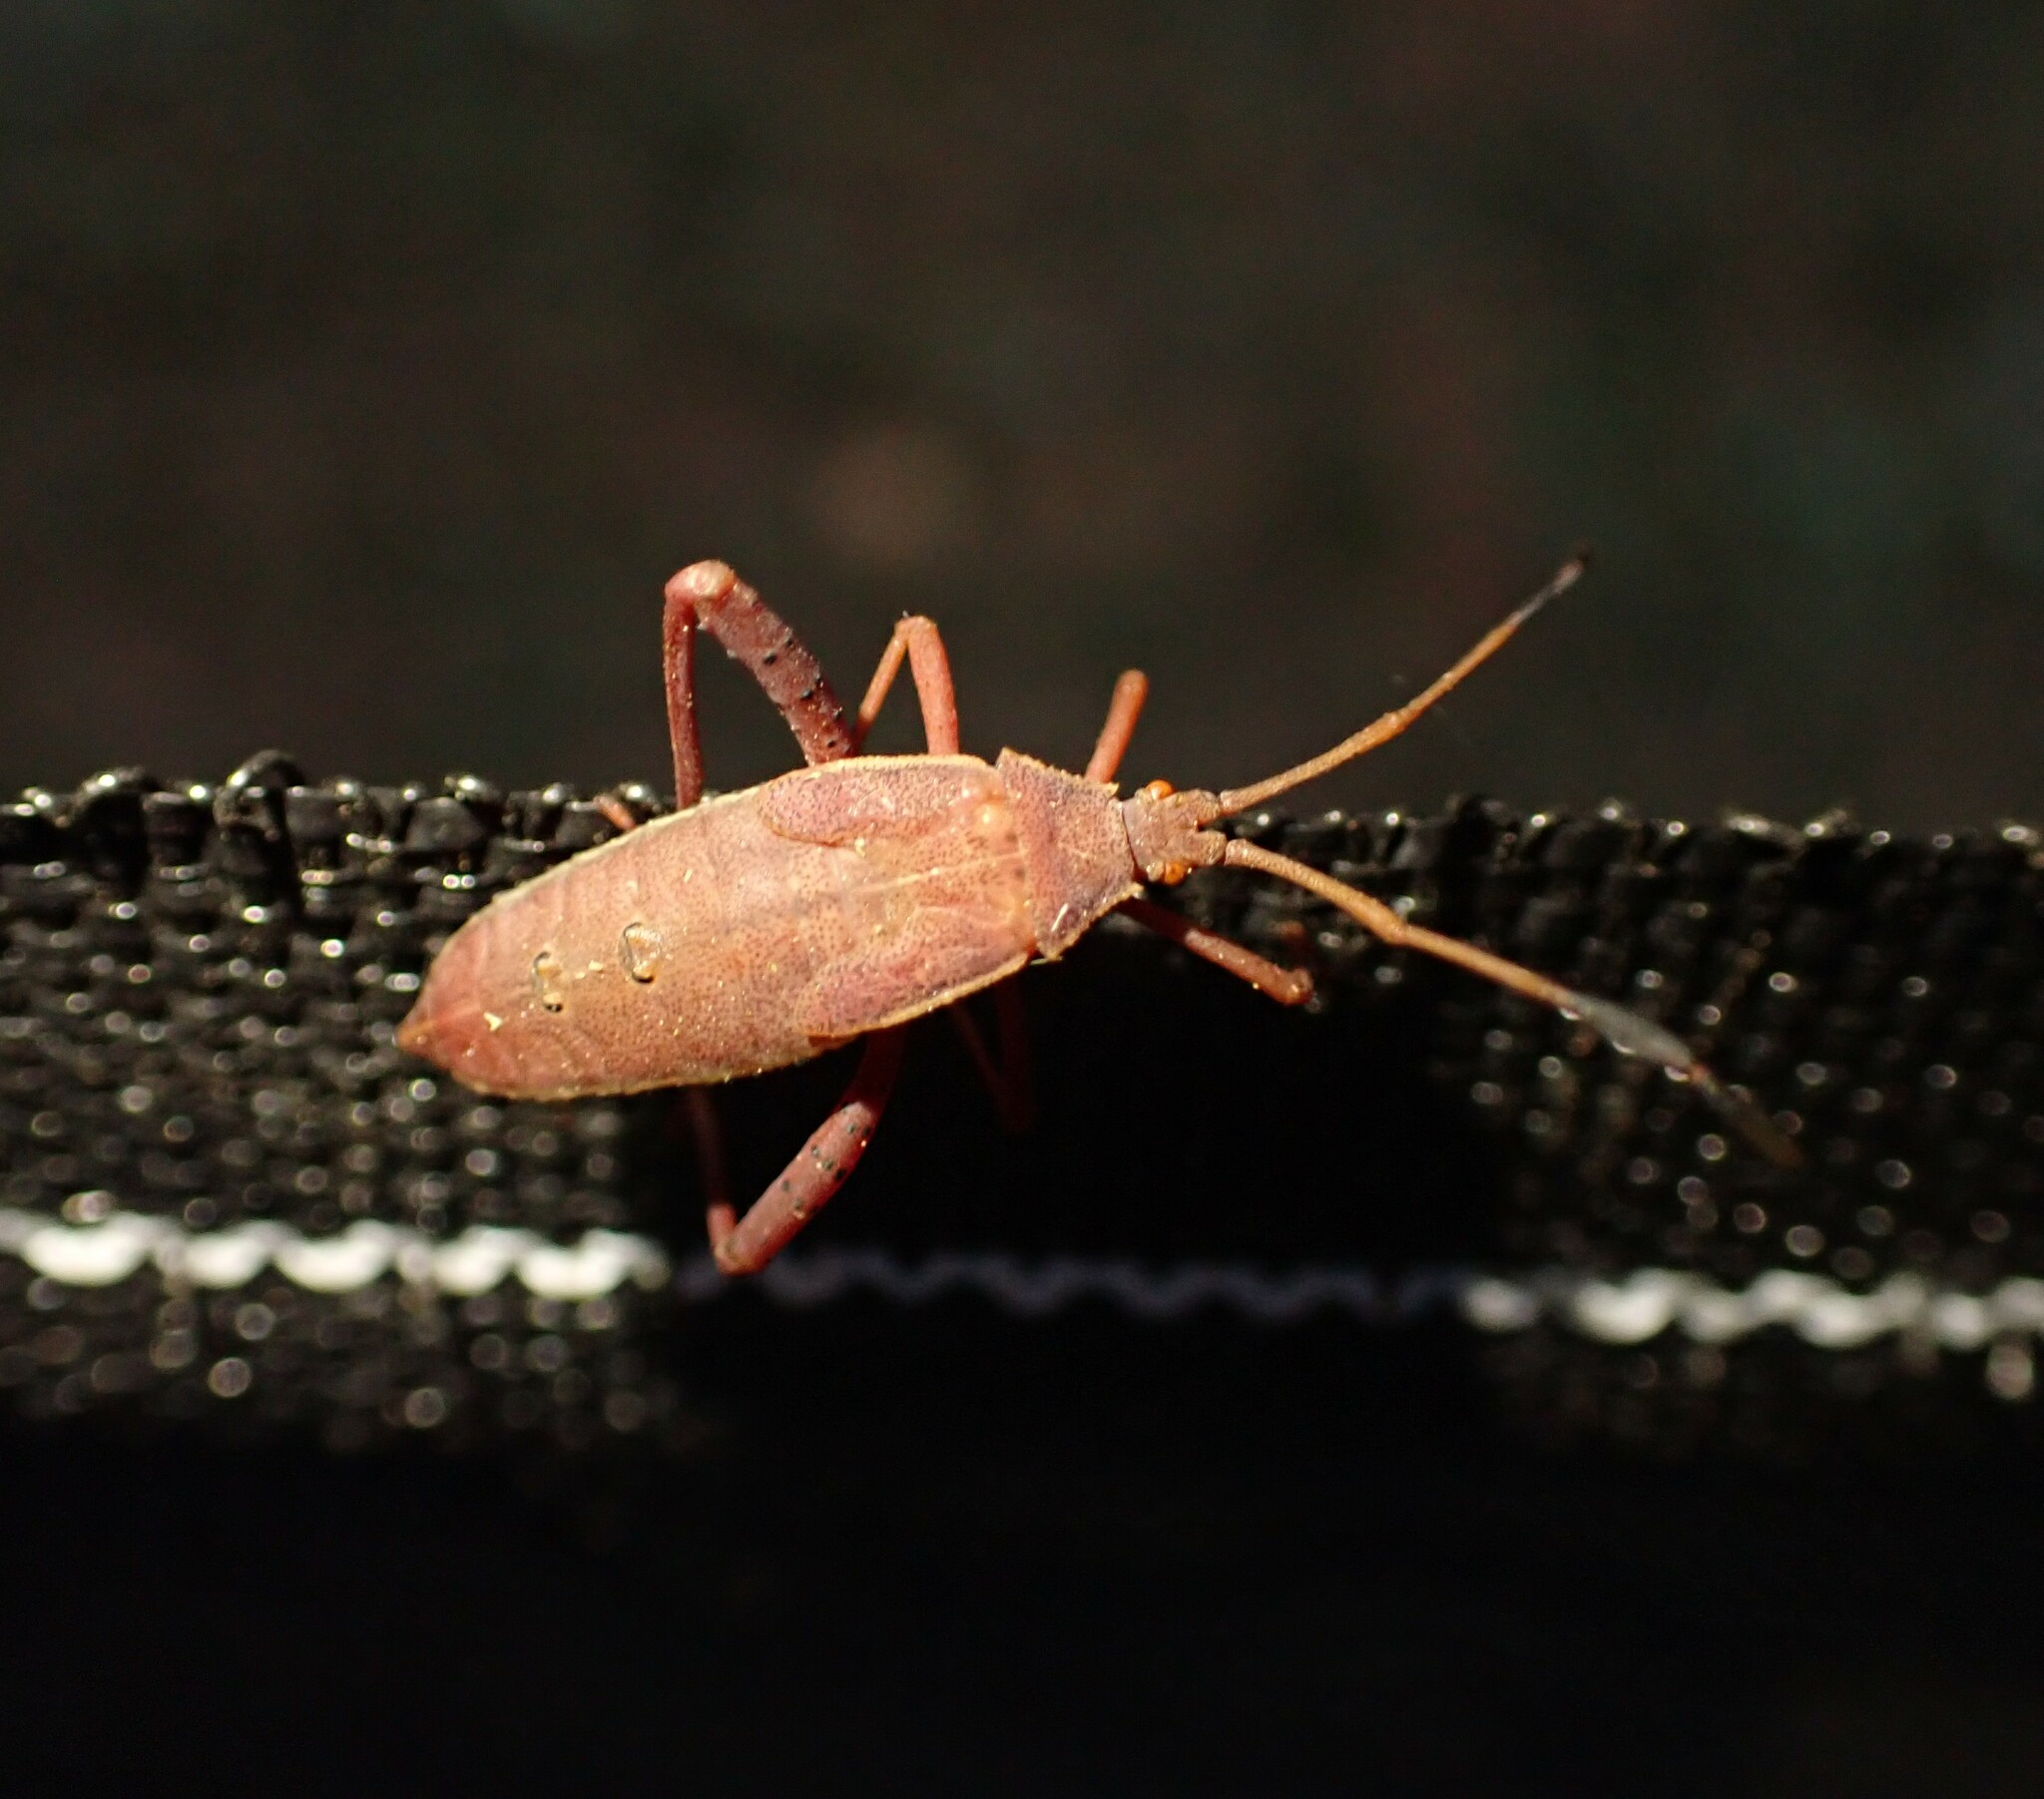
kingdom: Animalia
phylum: Arthropoda
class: Insecta
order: Hemiptera
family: Coreidae
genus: Crinocerus
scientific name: Crinocerus sanctus
